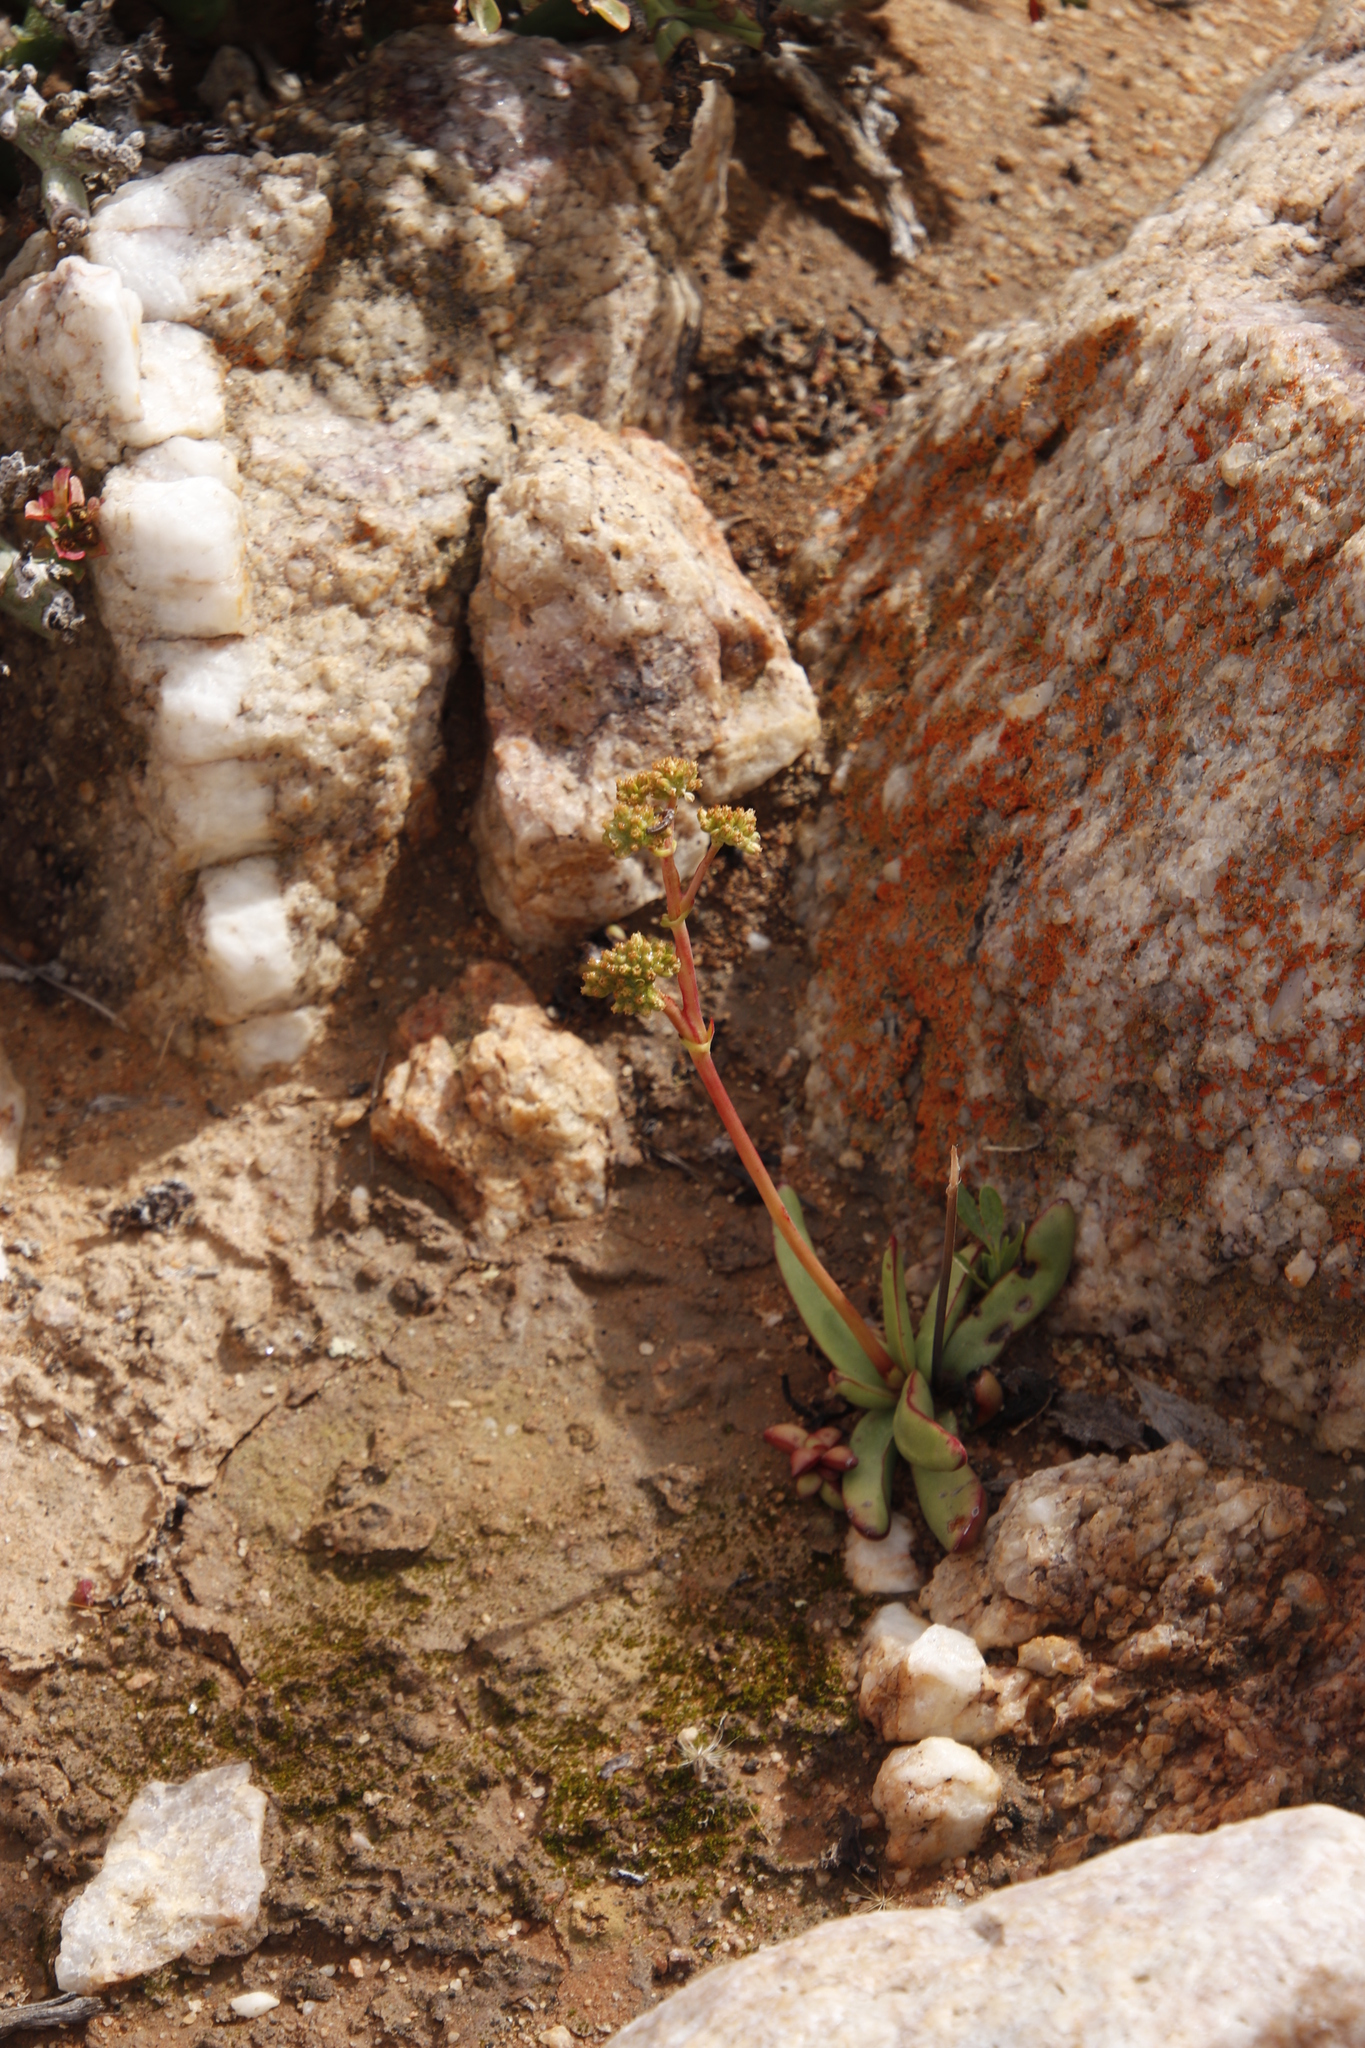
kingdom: Plantae
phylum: Tracheophyta
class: Magnoliopsida
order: Saxifragales
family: Crassulaceae
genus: Crassula
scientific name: Crassula nudicaulis
